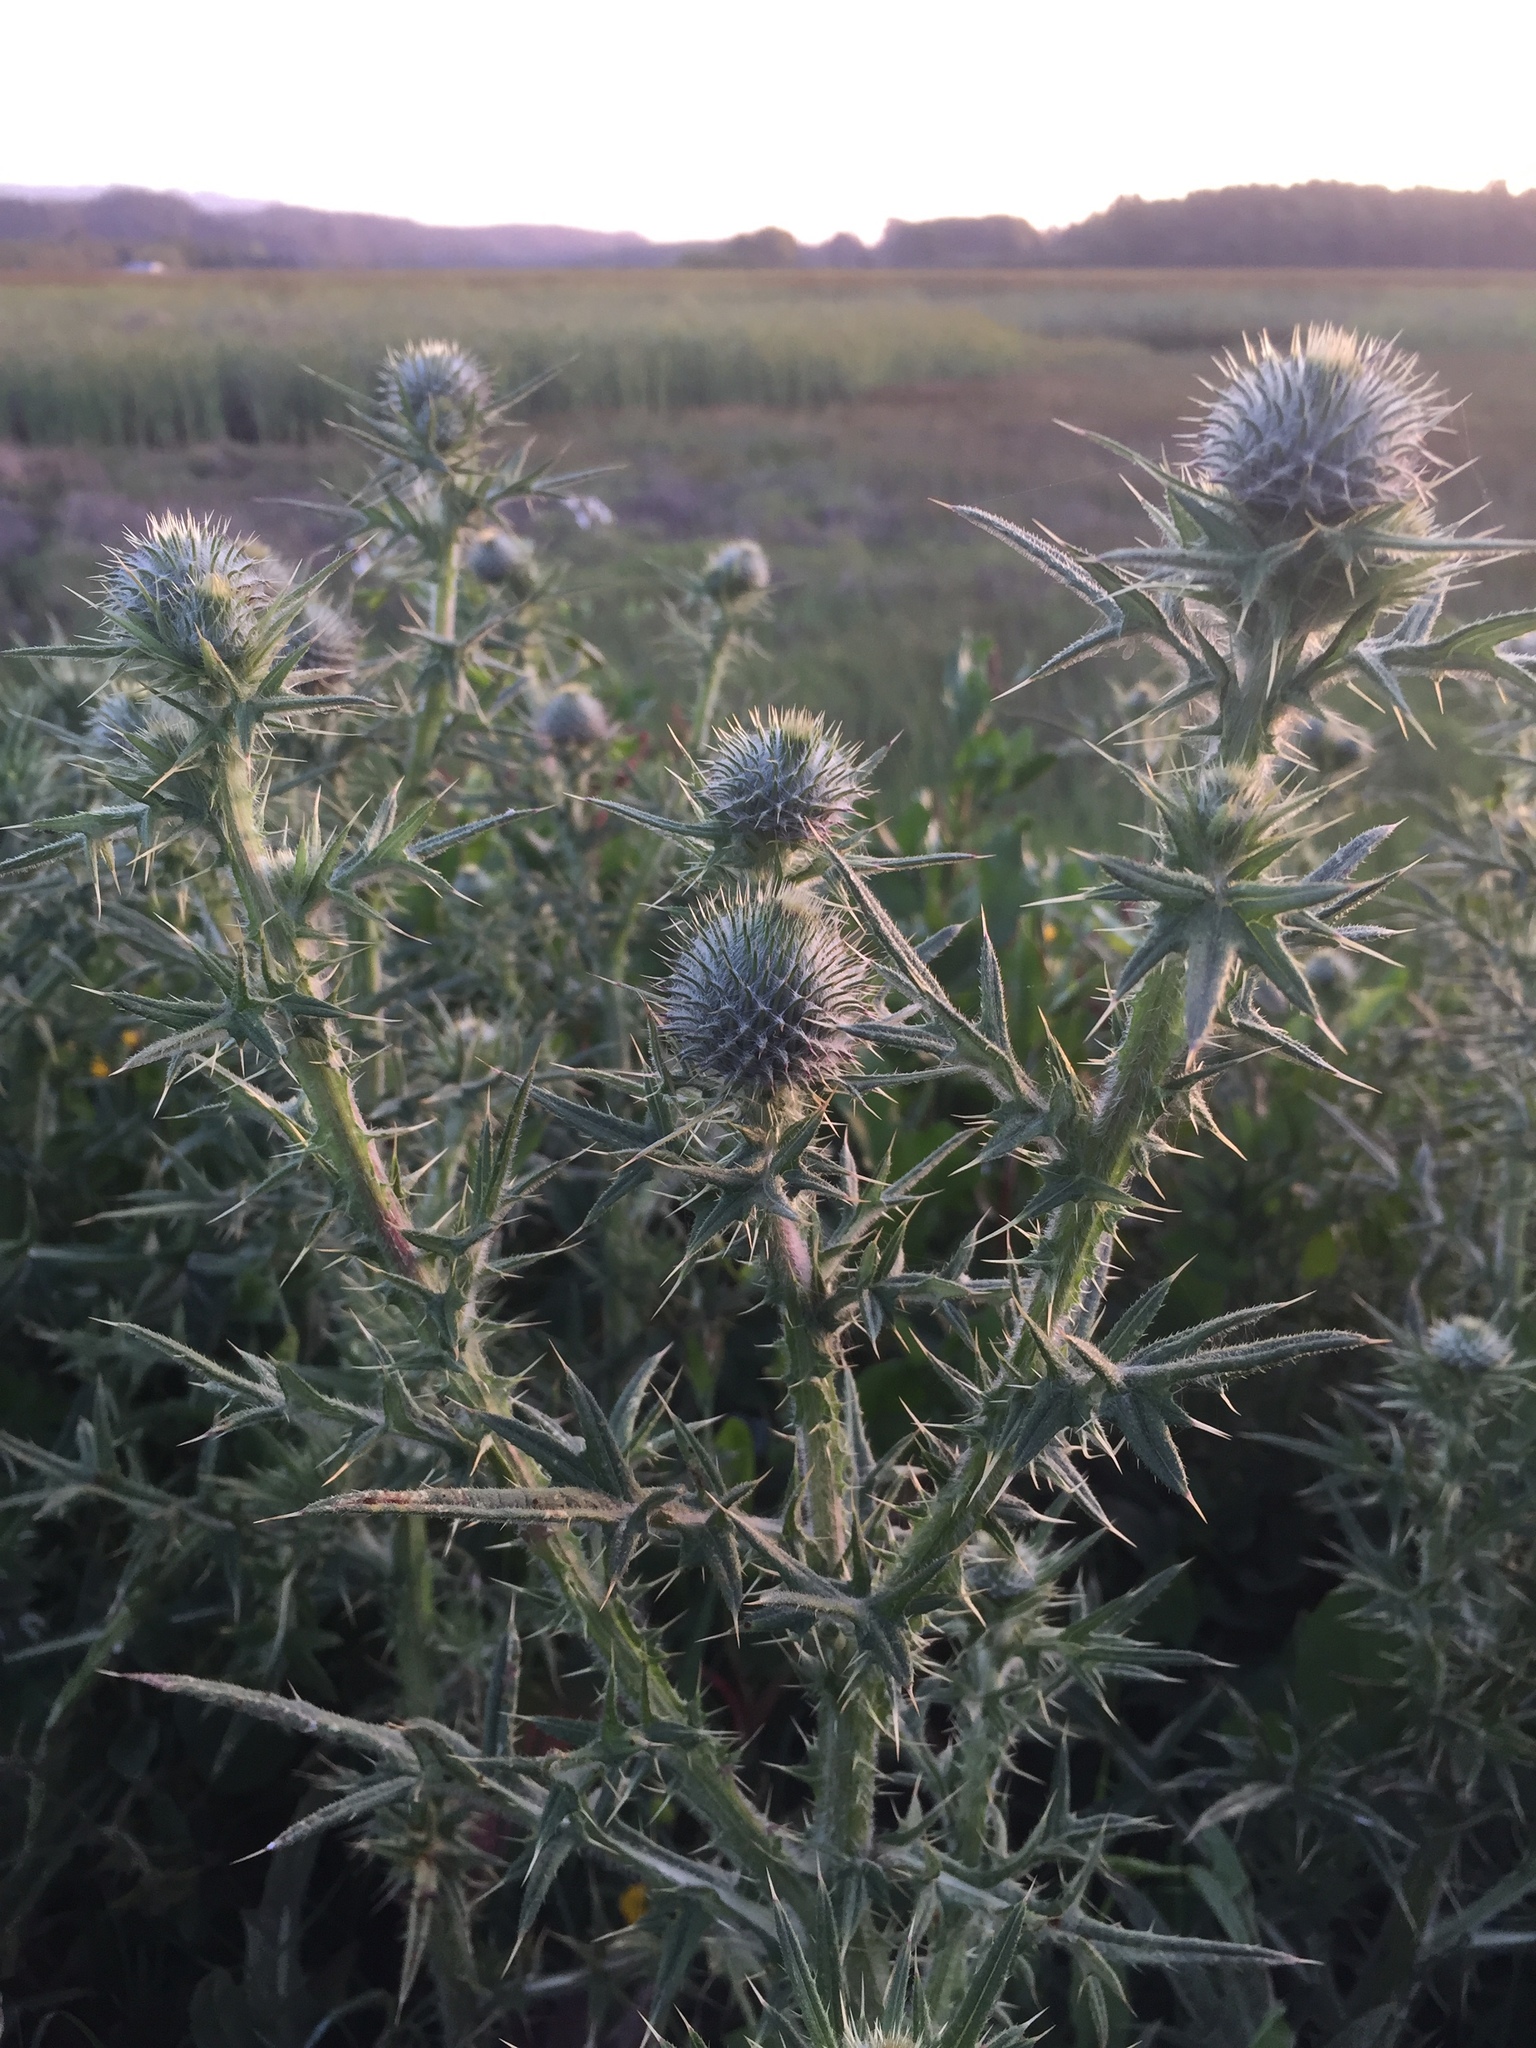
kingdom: Plantae
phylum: Tracheophyta
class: Magnoliopsida
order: Asterales
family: Asteraceae
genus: Cirsium
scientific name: Cirsium vulgare
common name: Bull thistle
